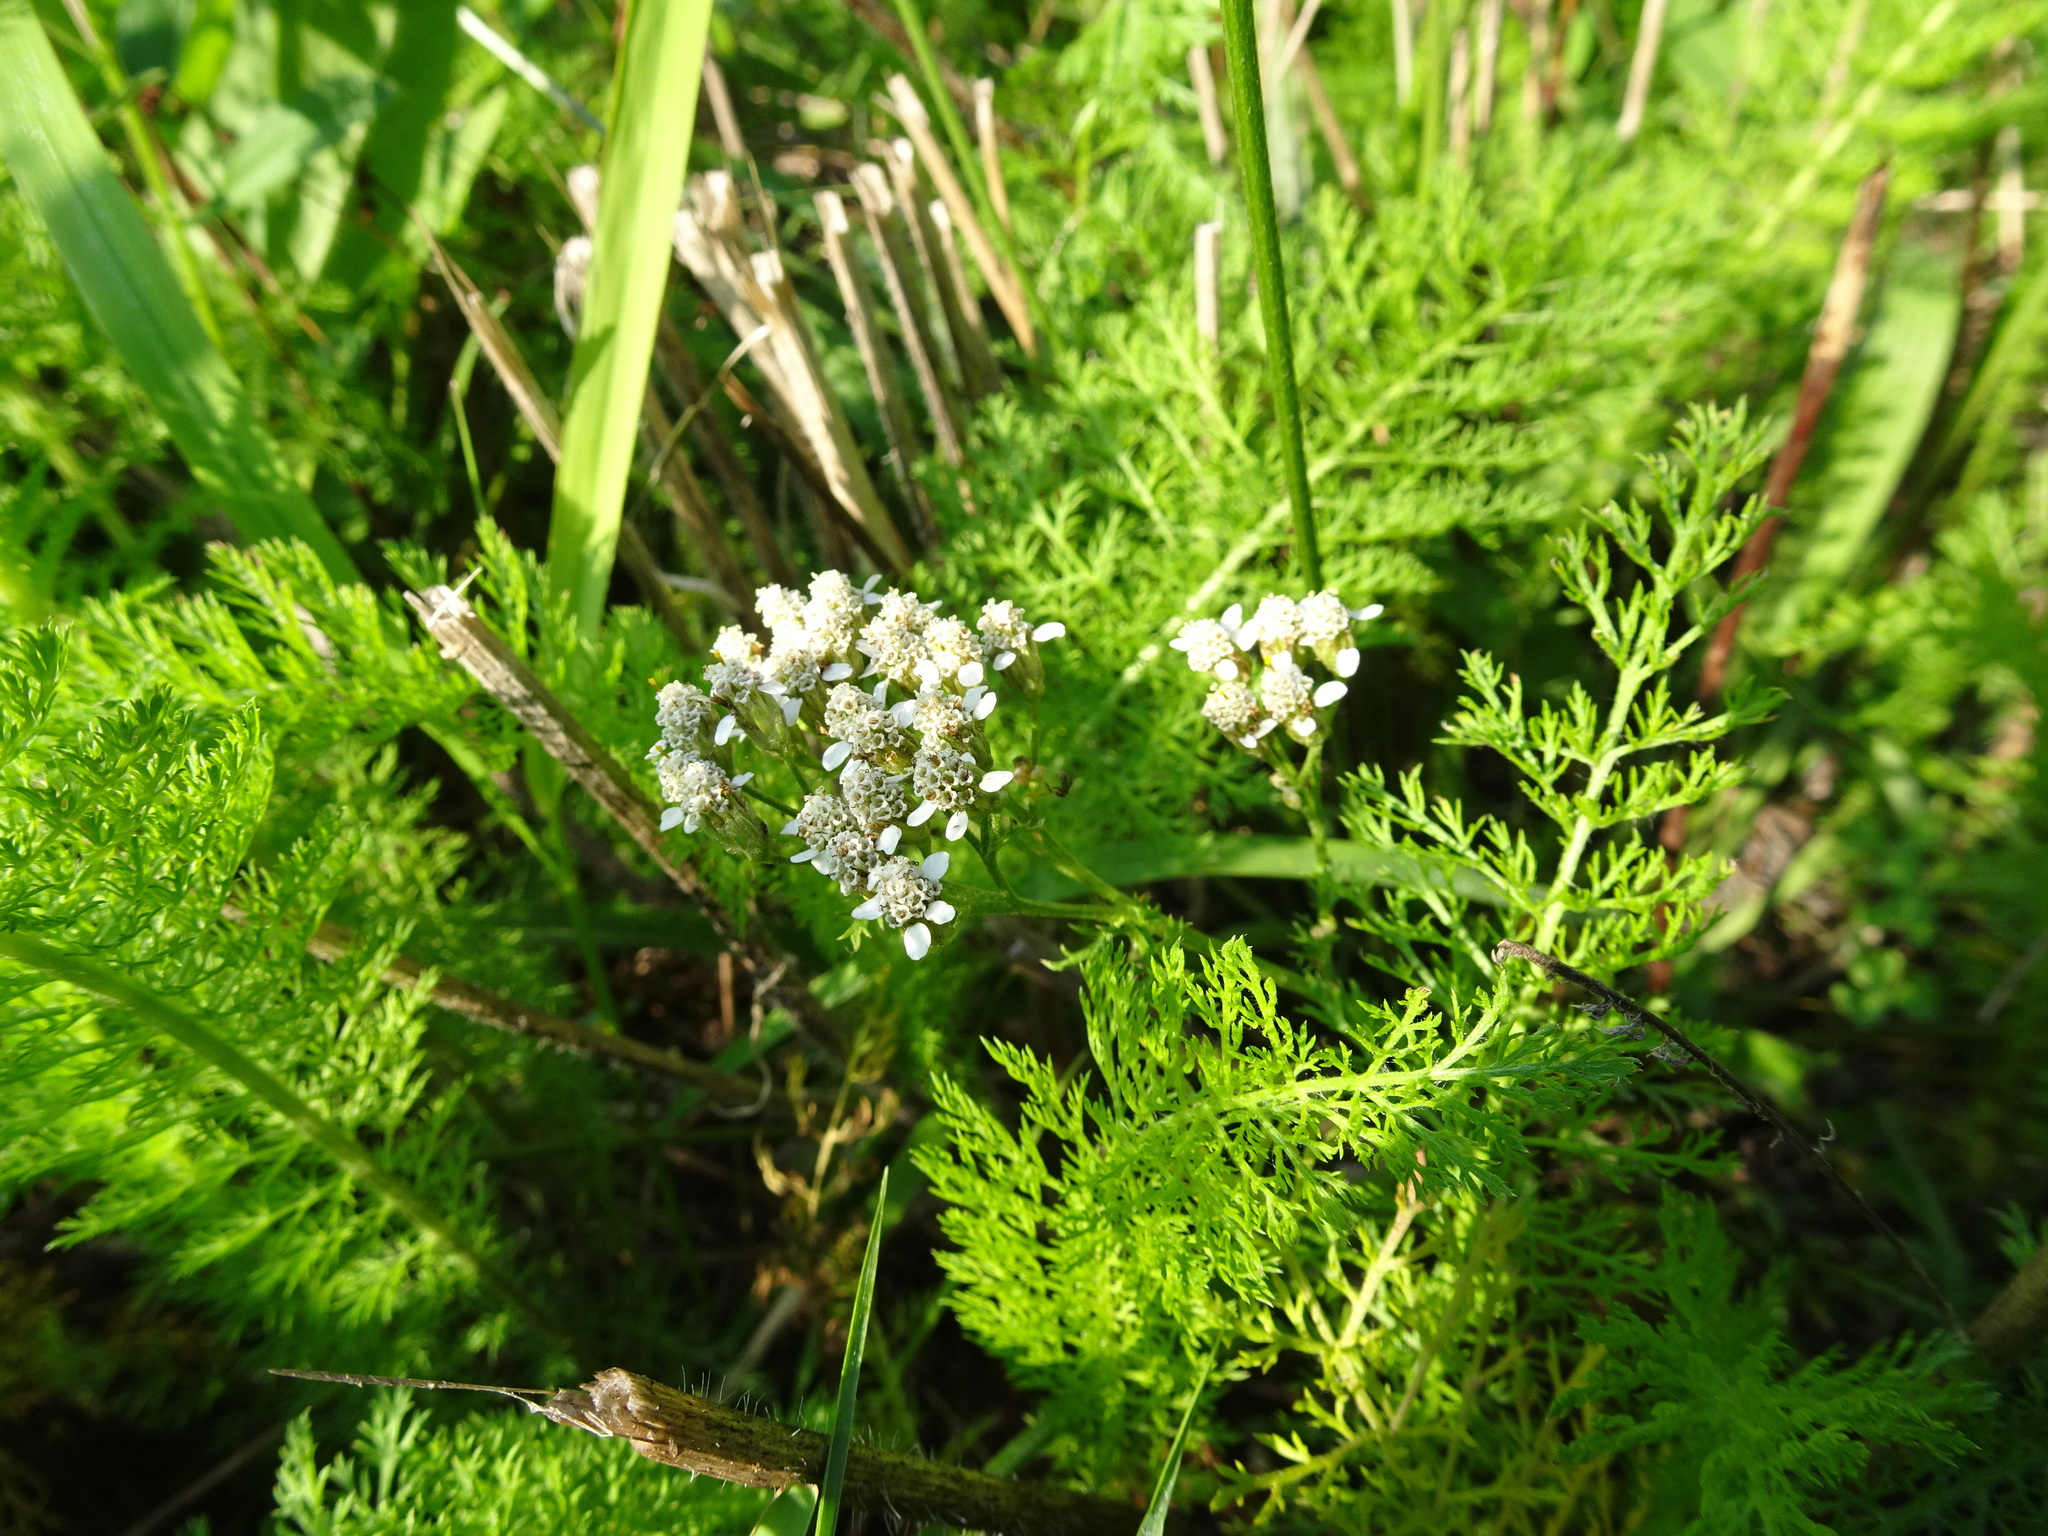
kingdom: Plantae
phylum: Tracheophyta
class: Magnoliopsida
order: Asterales
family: Asteraceae
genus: Achillea
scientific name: Achillea millefolium
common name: Yarrow
